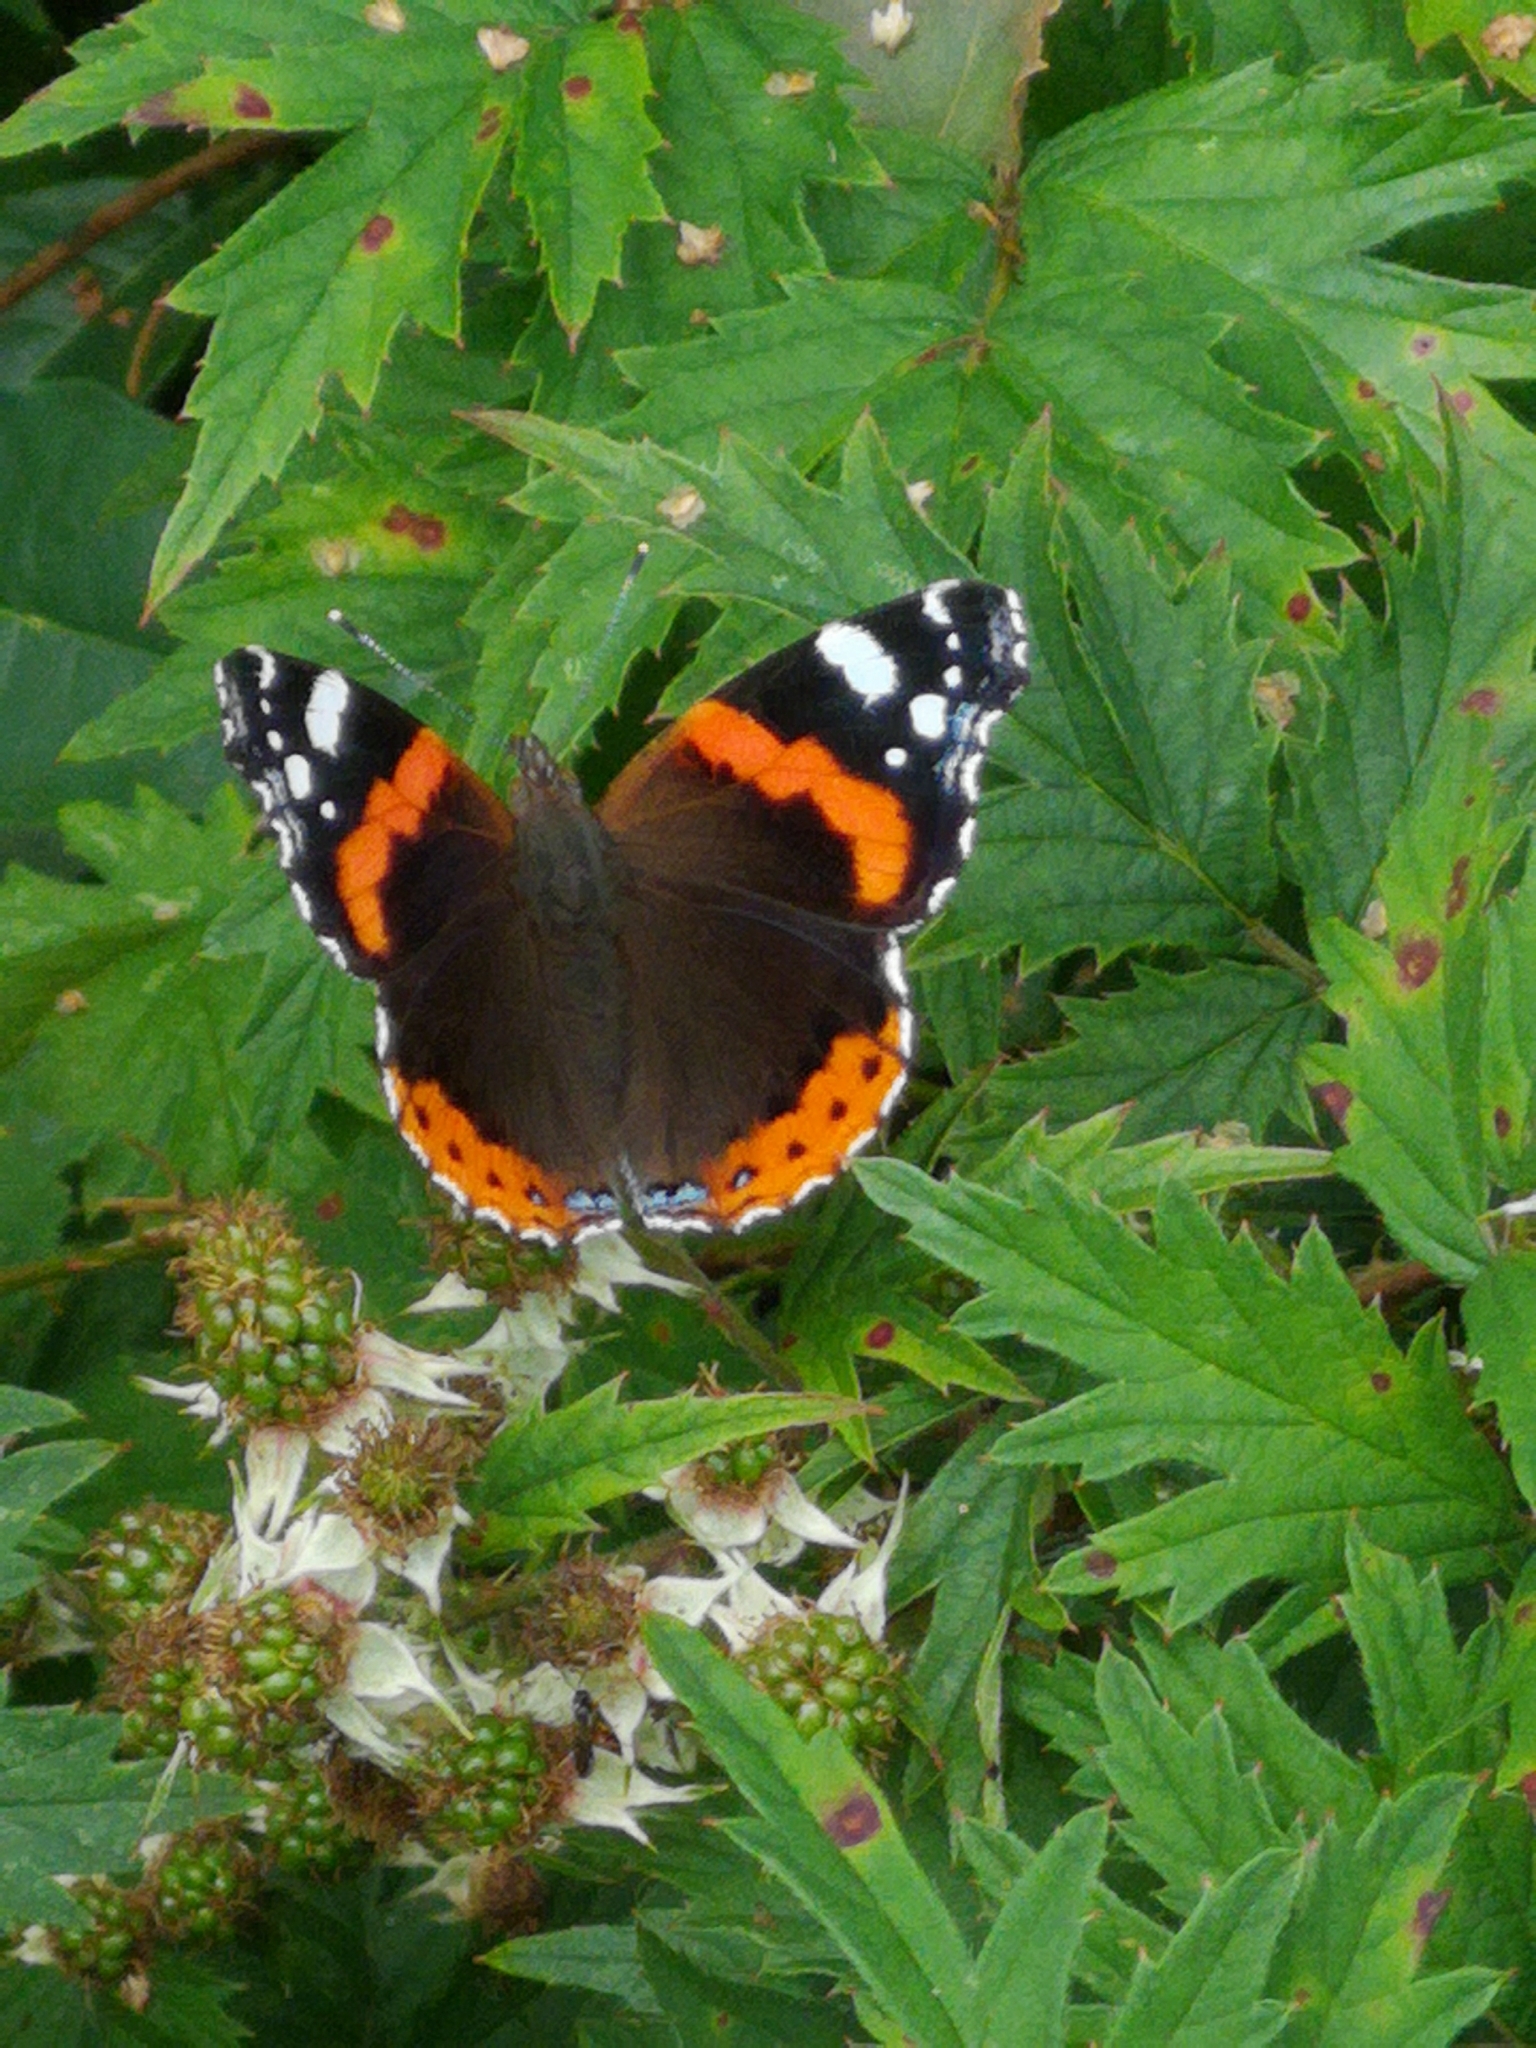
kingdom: Animalia
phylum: Arthropoda
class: Insecta
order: Lepidoptera
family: Nymphalidae
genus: Vanessa
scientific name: Vanessa atalanta
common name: Red admiral
